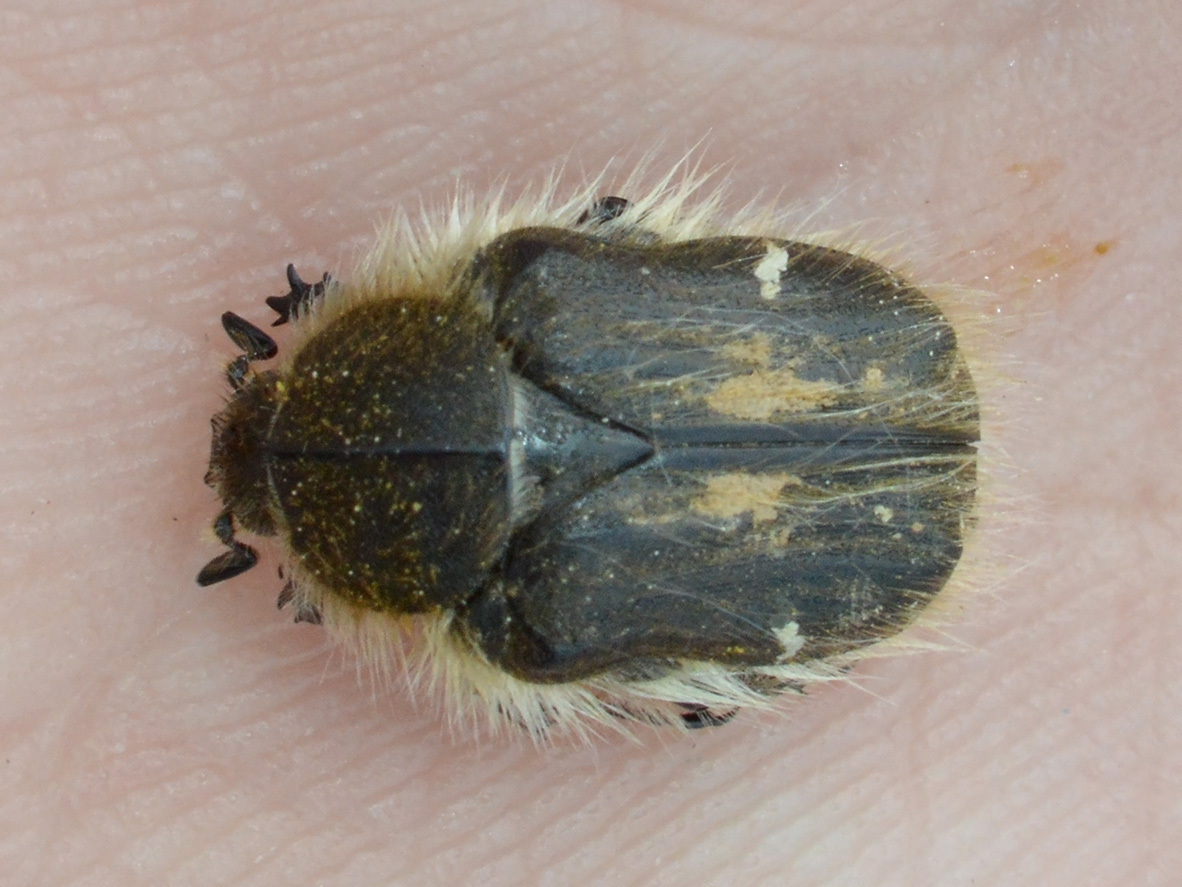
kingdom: Animalia
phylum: Arthropoda
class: Insecta
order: Coleoptera
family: Scarabaeidae
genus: Tropinota
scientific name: Tropinota hirta
